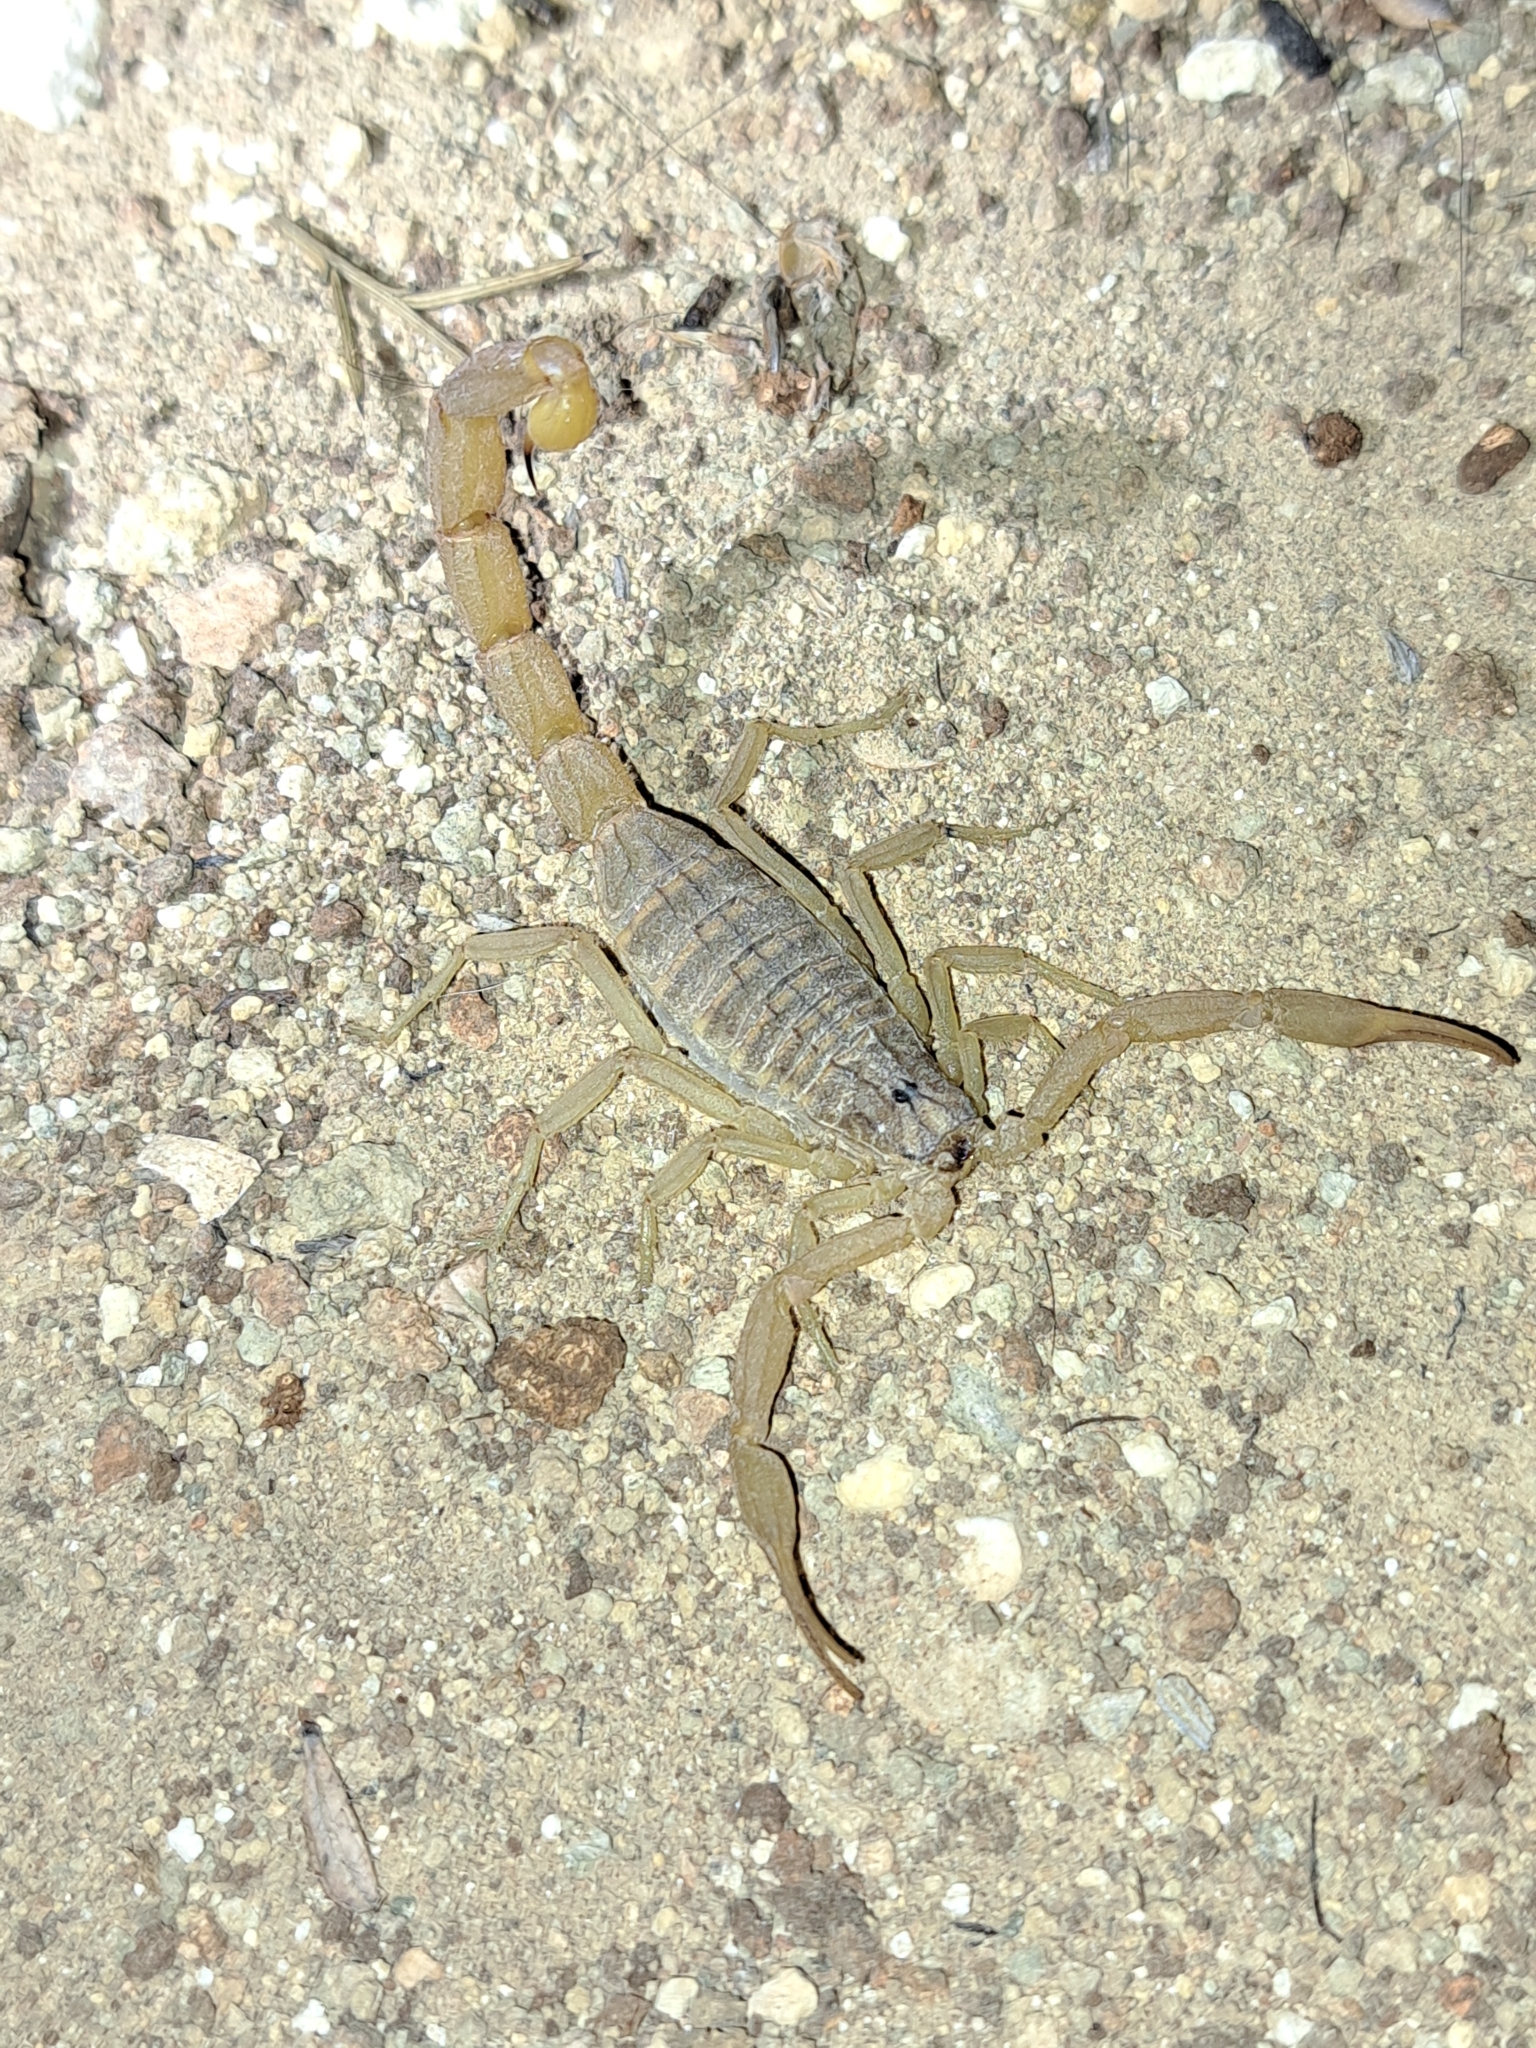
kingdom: Animalia
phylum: Arthropoda
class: Arachnida
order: Scorpiones
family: Buthidae
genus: Aegaeobuthus
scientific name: Aegaeobuthus gibbosus
